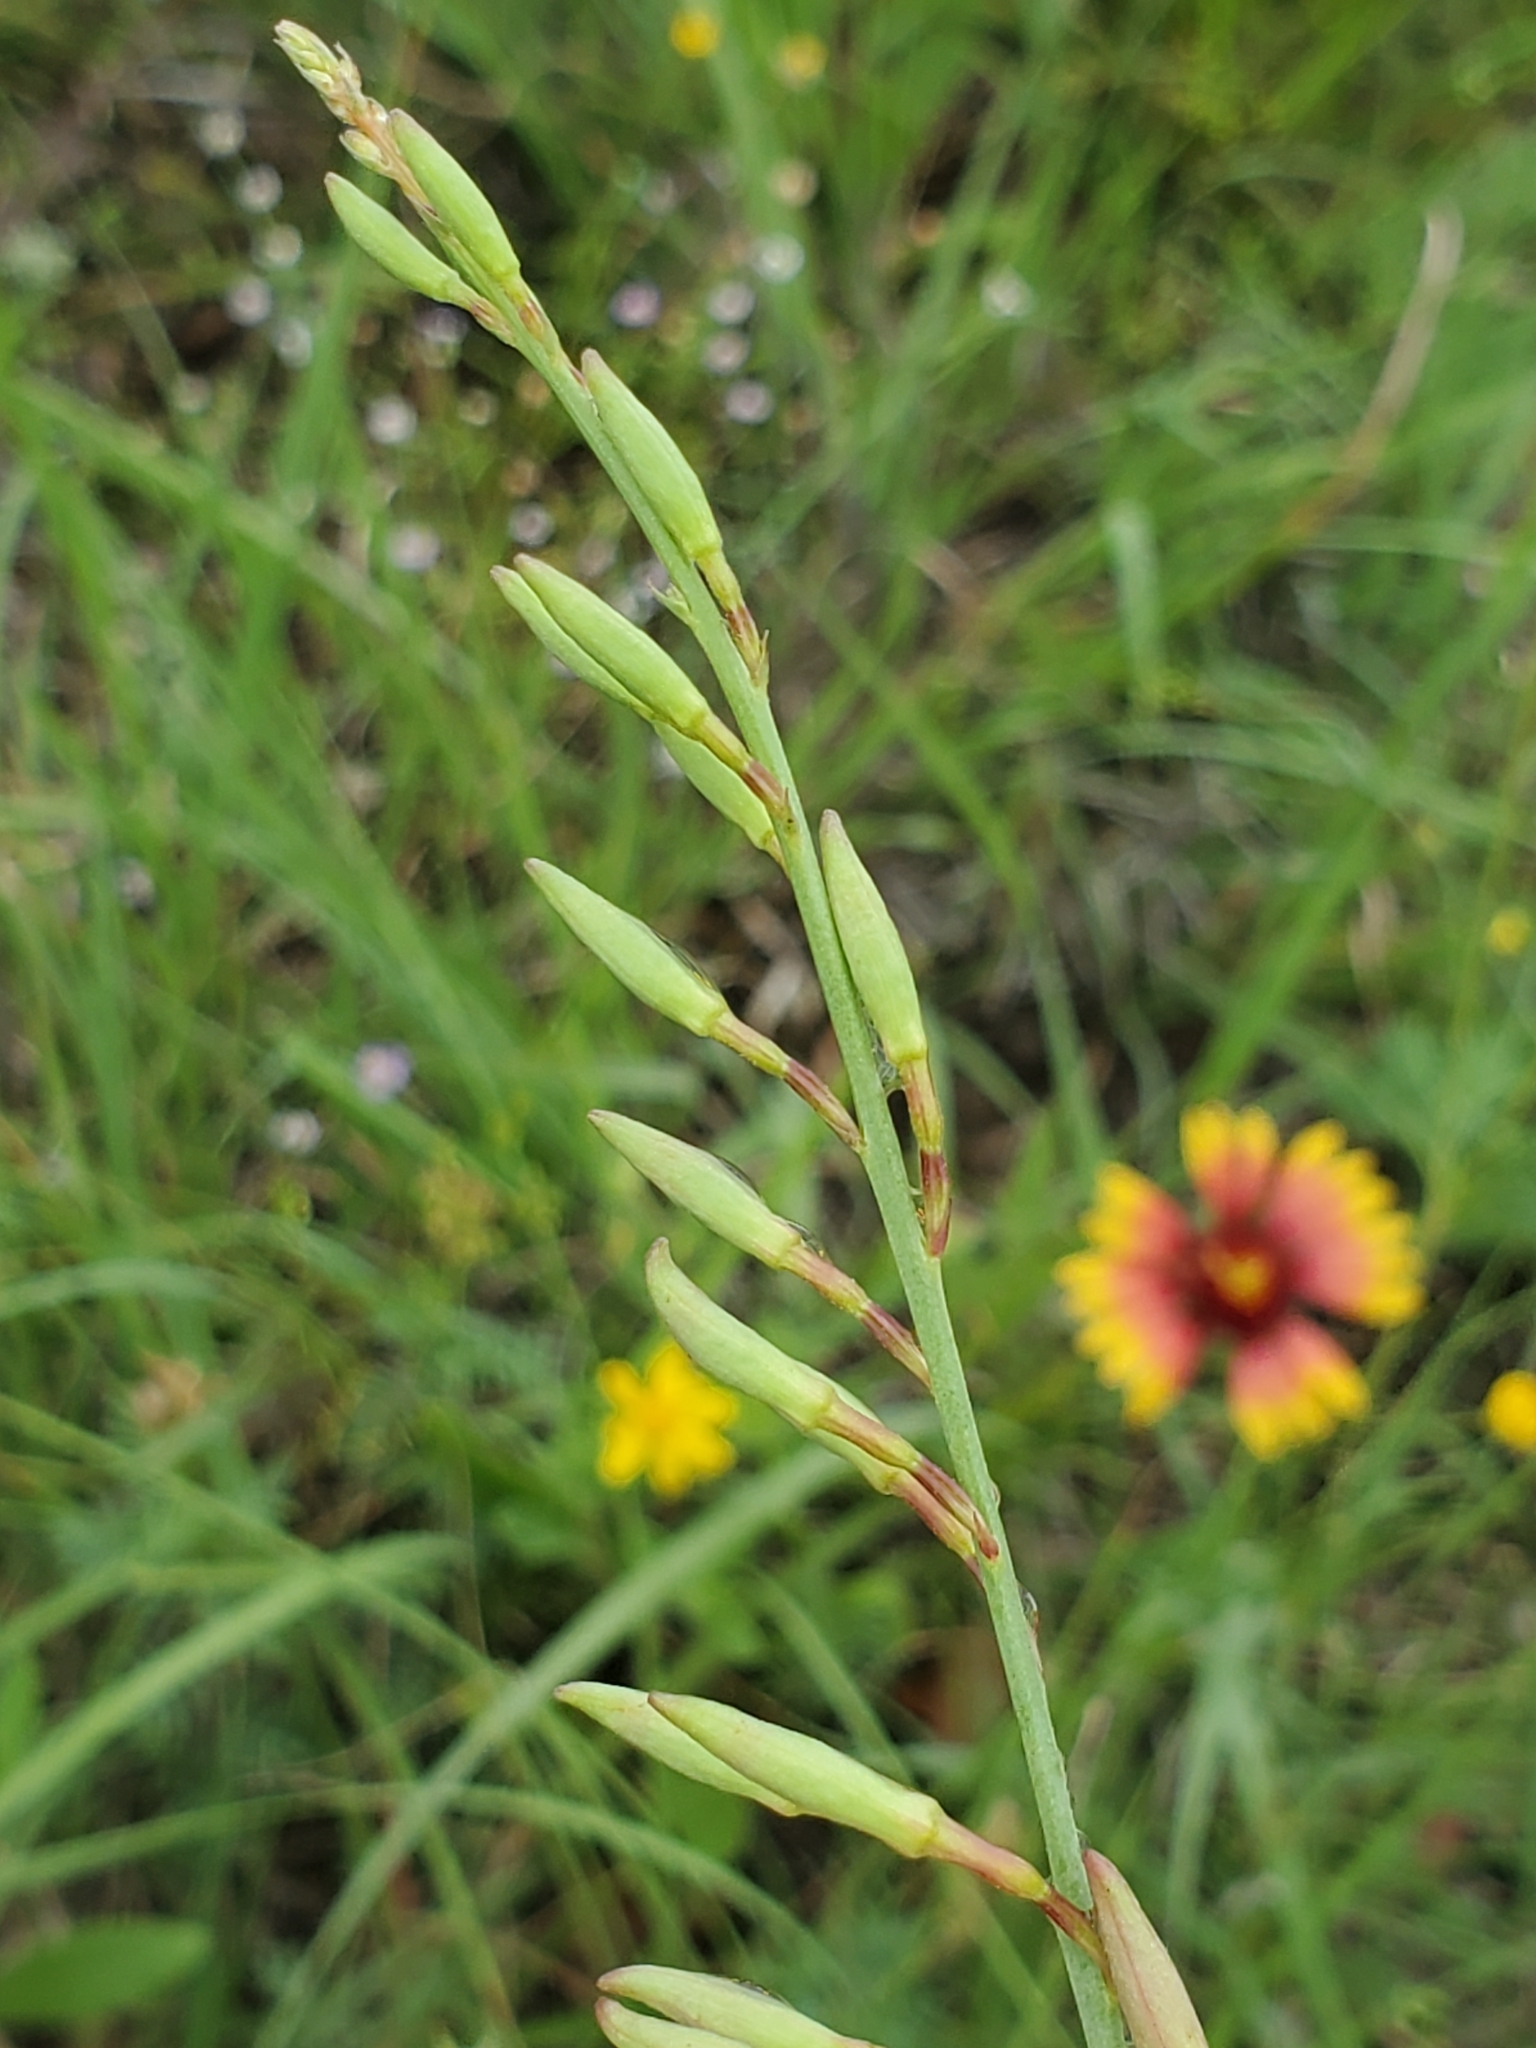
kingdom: Plantae
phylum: Tracheophyta
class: Magnoliopsida
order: Myrtales
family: Onagraceae
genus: Oenothera
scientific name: Oenothera suffrutescens
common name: Scarlet beeblossom
